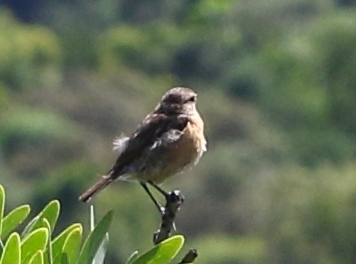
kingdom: Animalia
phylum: Chordata
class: Aves
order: Passeriformes
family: Muscicapidae
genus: Saxicola
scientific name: Saxicola torquatus
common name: African stonechat
